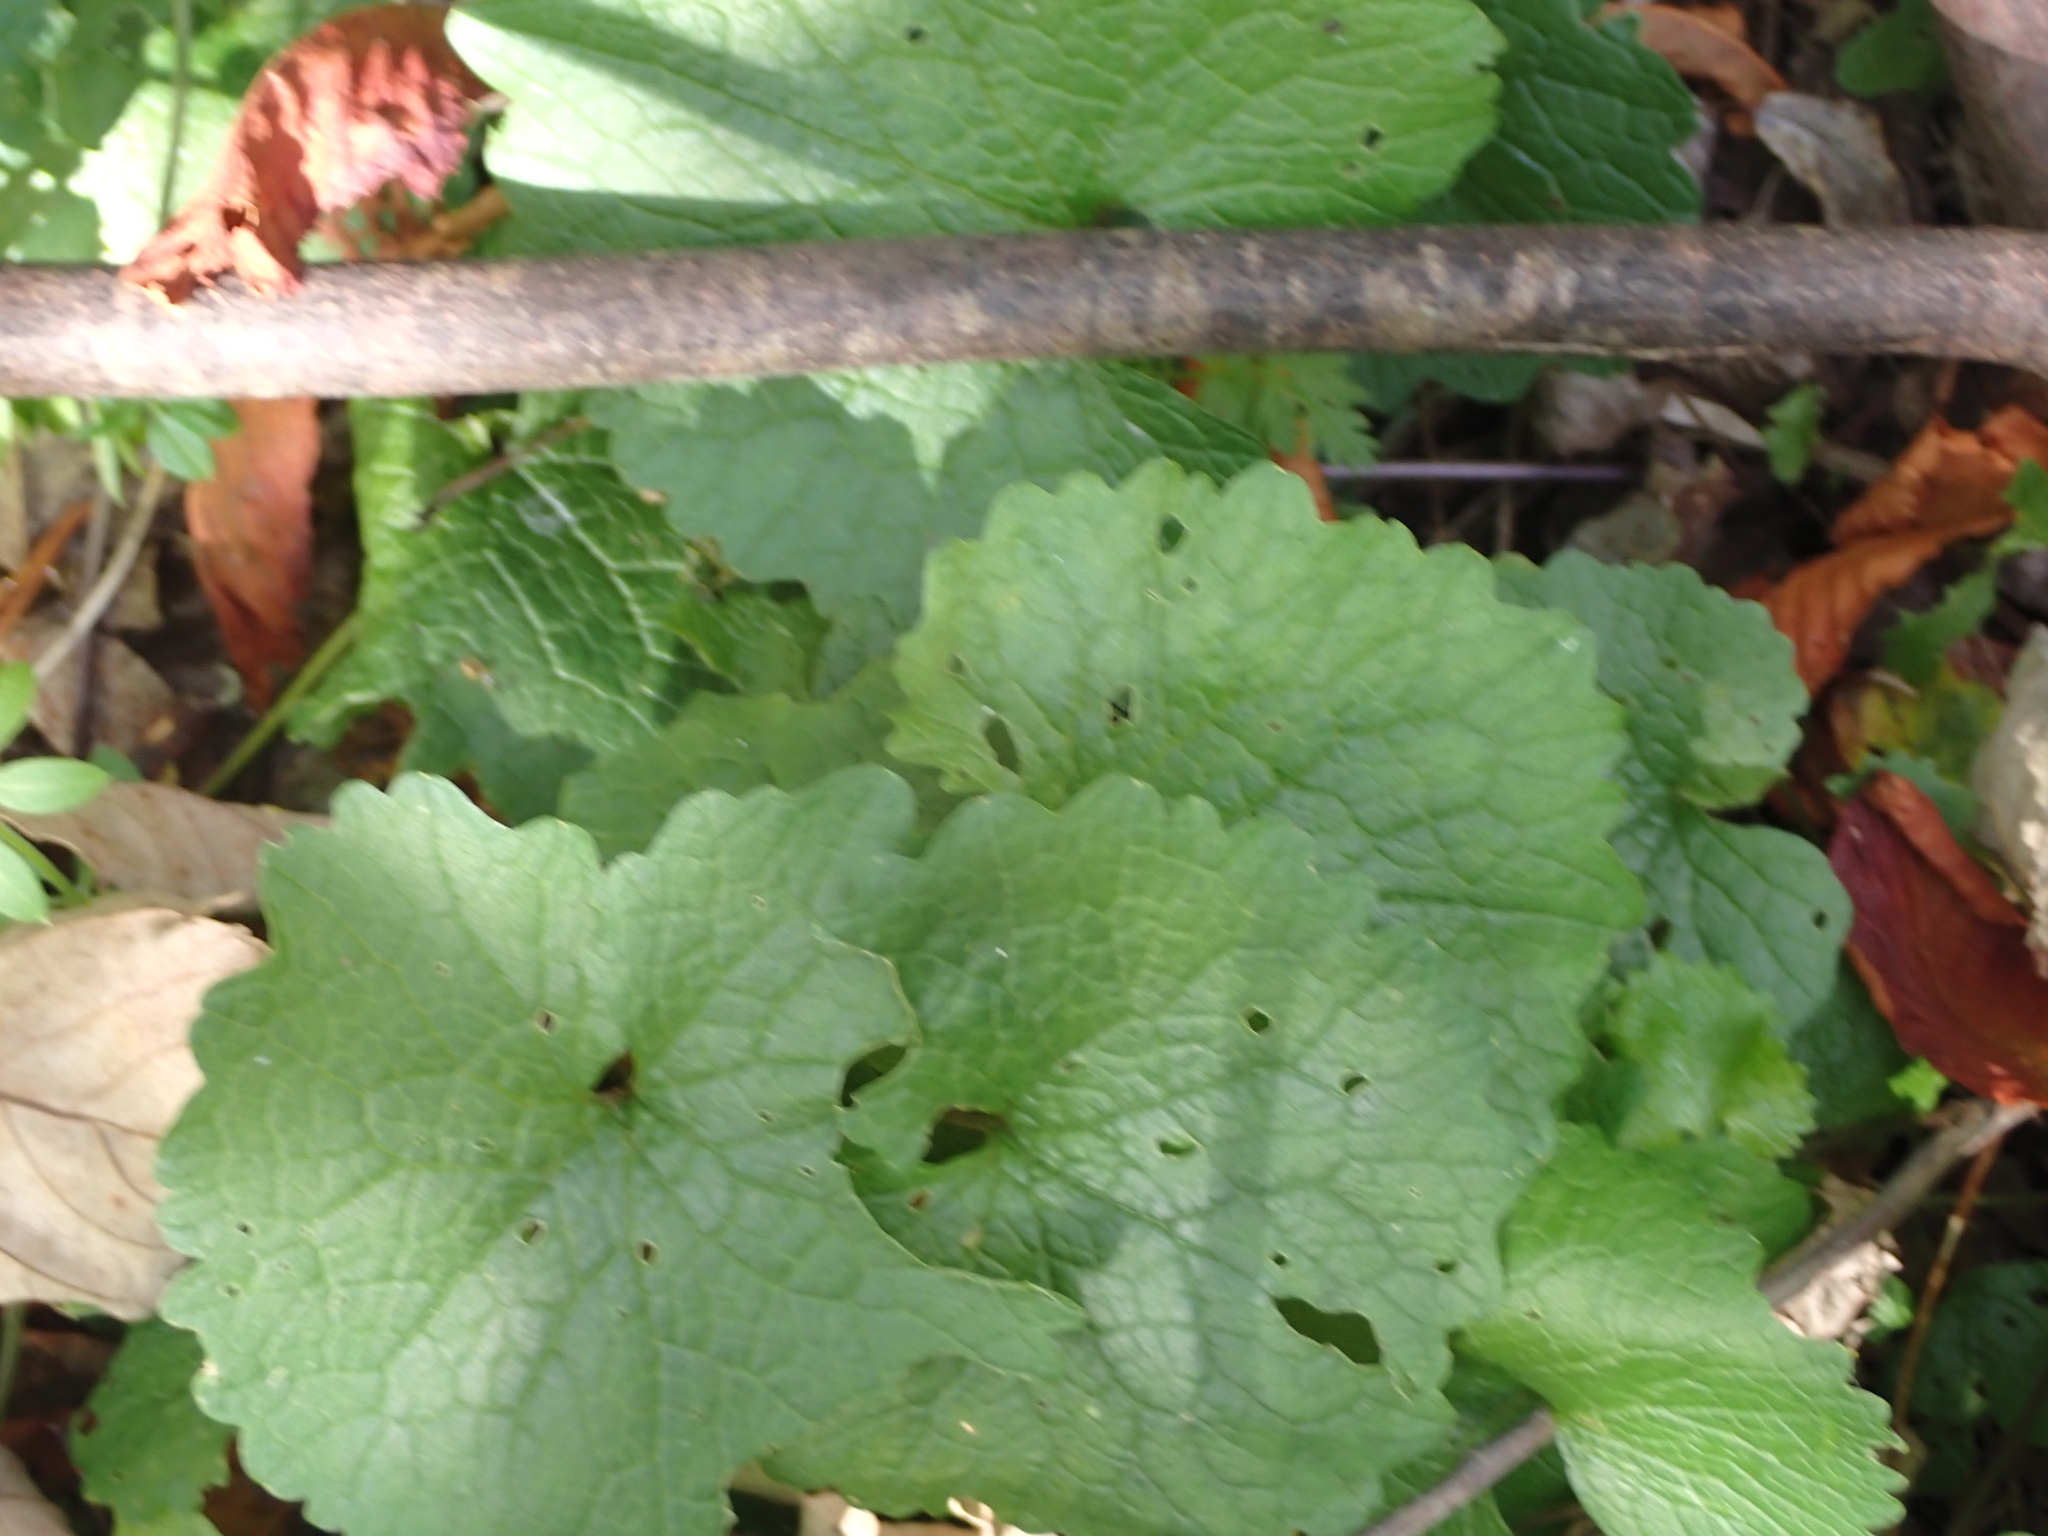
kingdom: Plantae
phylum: Tracheophyta
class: Magnoliopsida
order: Brassicales
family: Brassicaceae
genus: Alliaria
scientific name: Alliaria petiolata
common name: Garlic mustard
